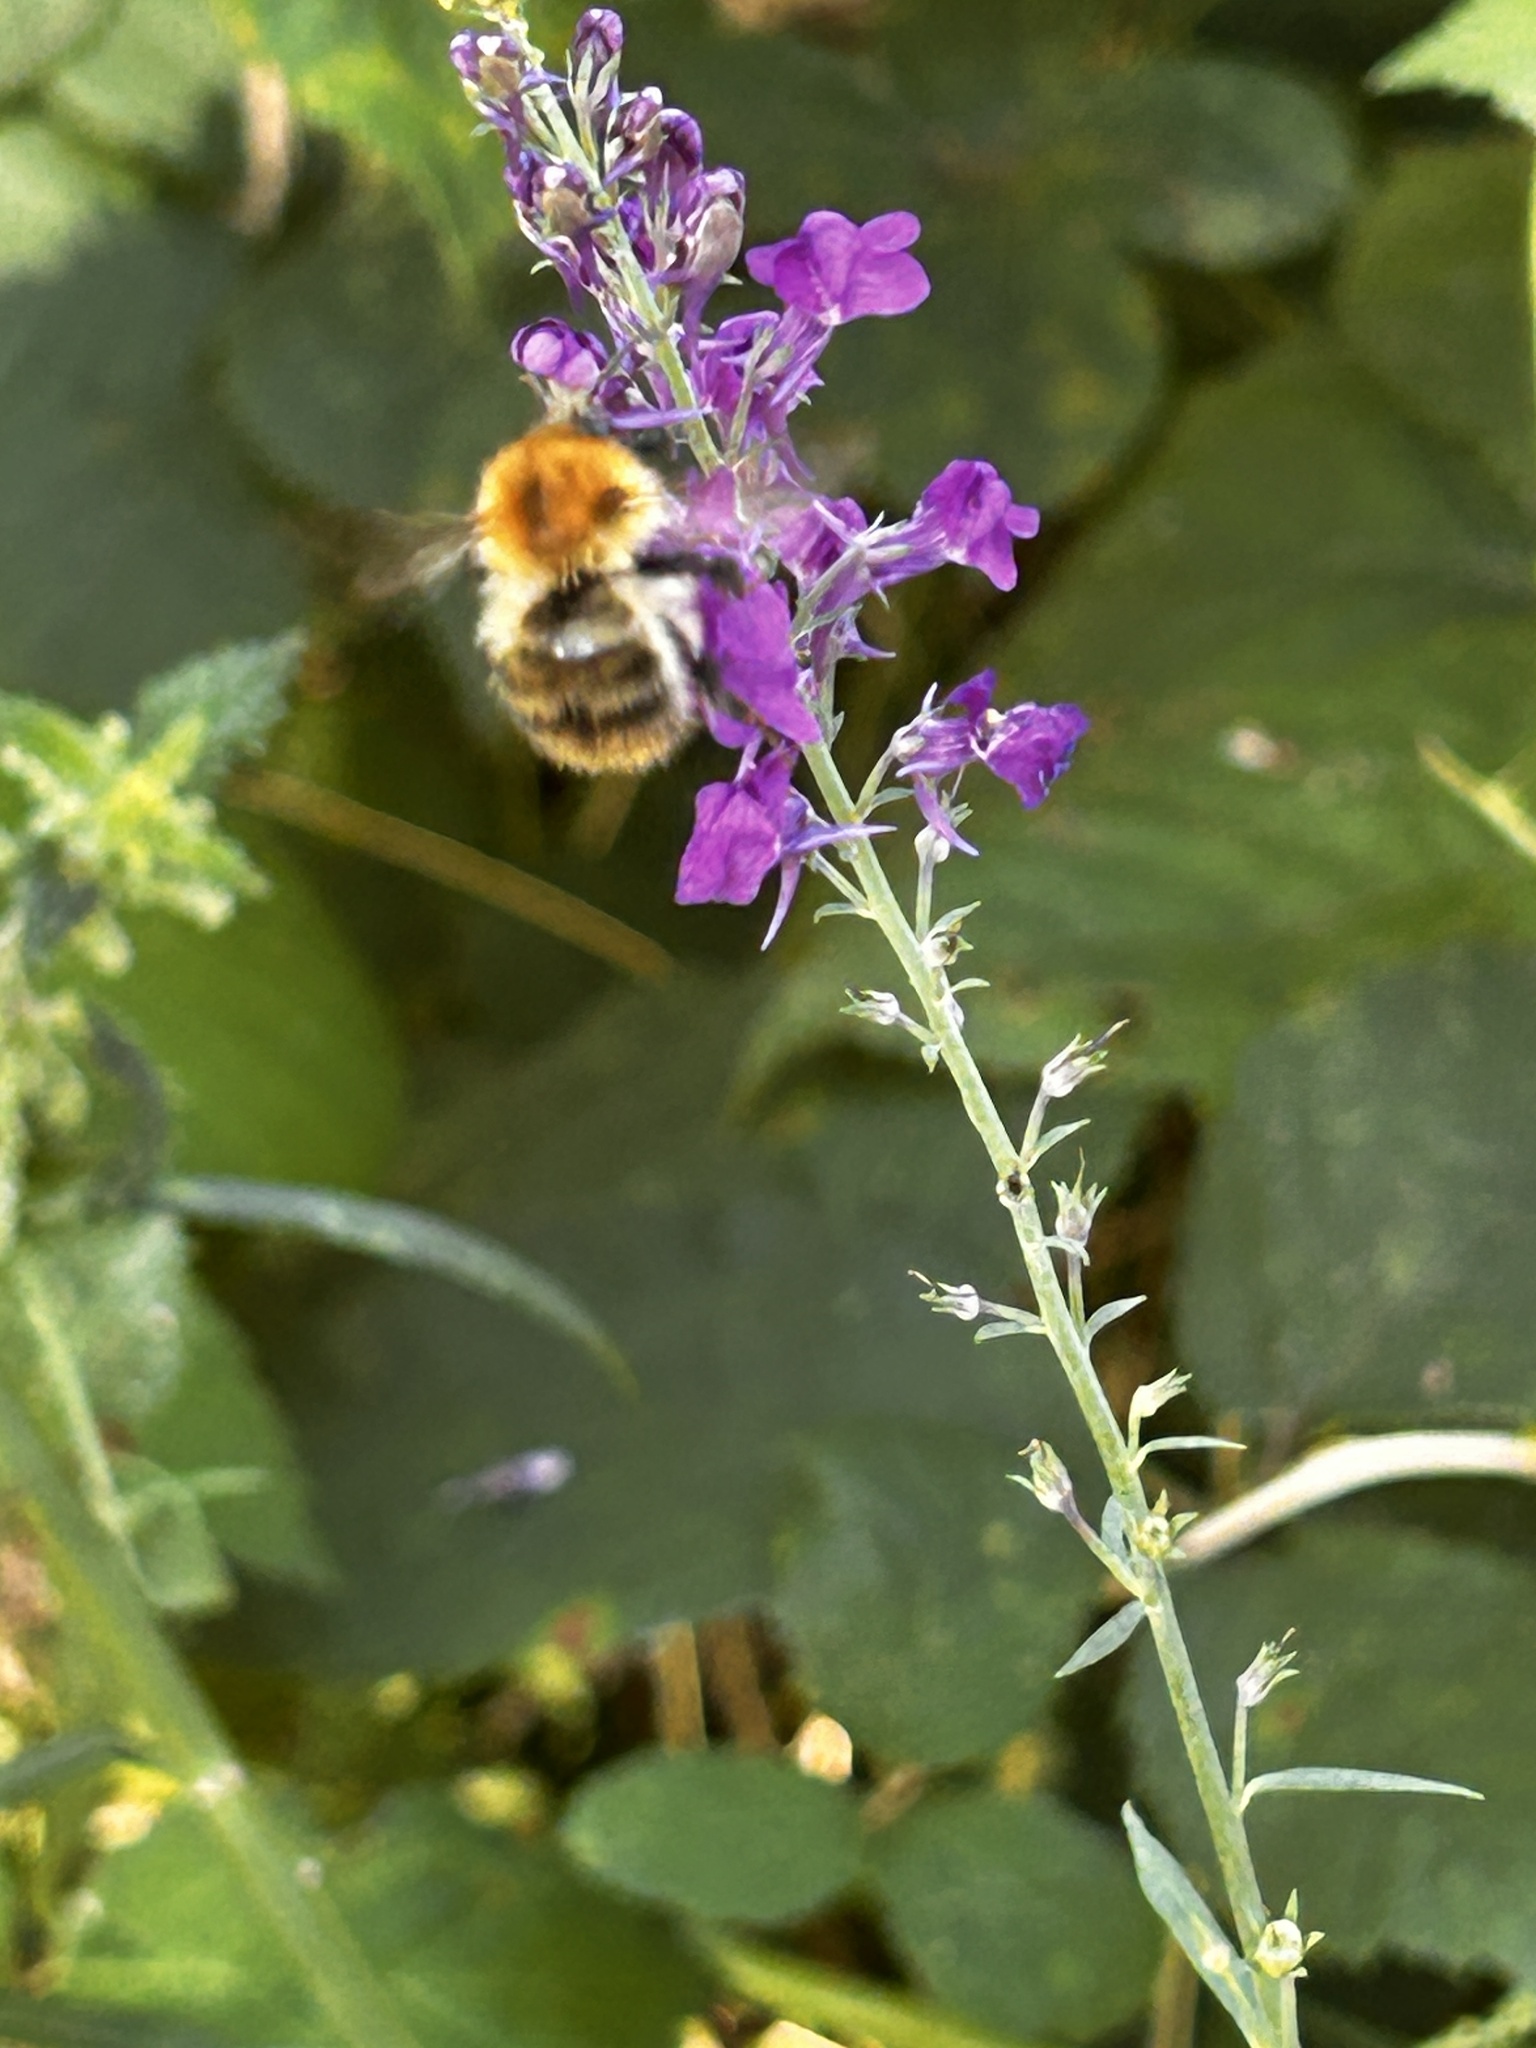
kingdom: Animalia
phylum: Arthropoda
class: Insecta
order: Hymenoptera
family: Apidae
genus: Bombus
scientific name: Bombus pascuorum
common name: Common carder bee
